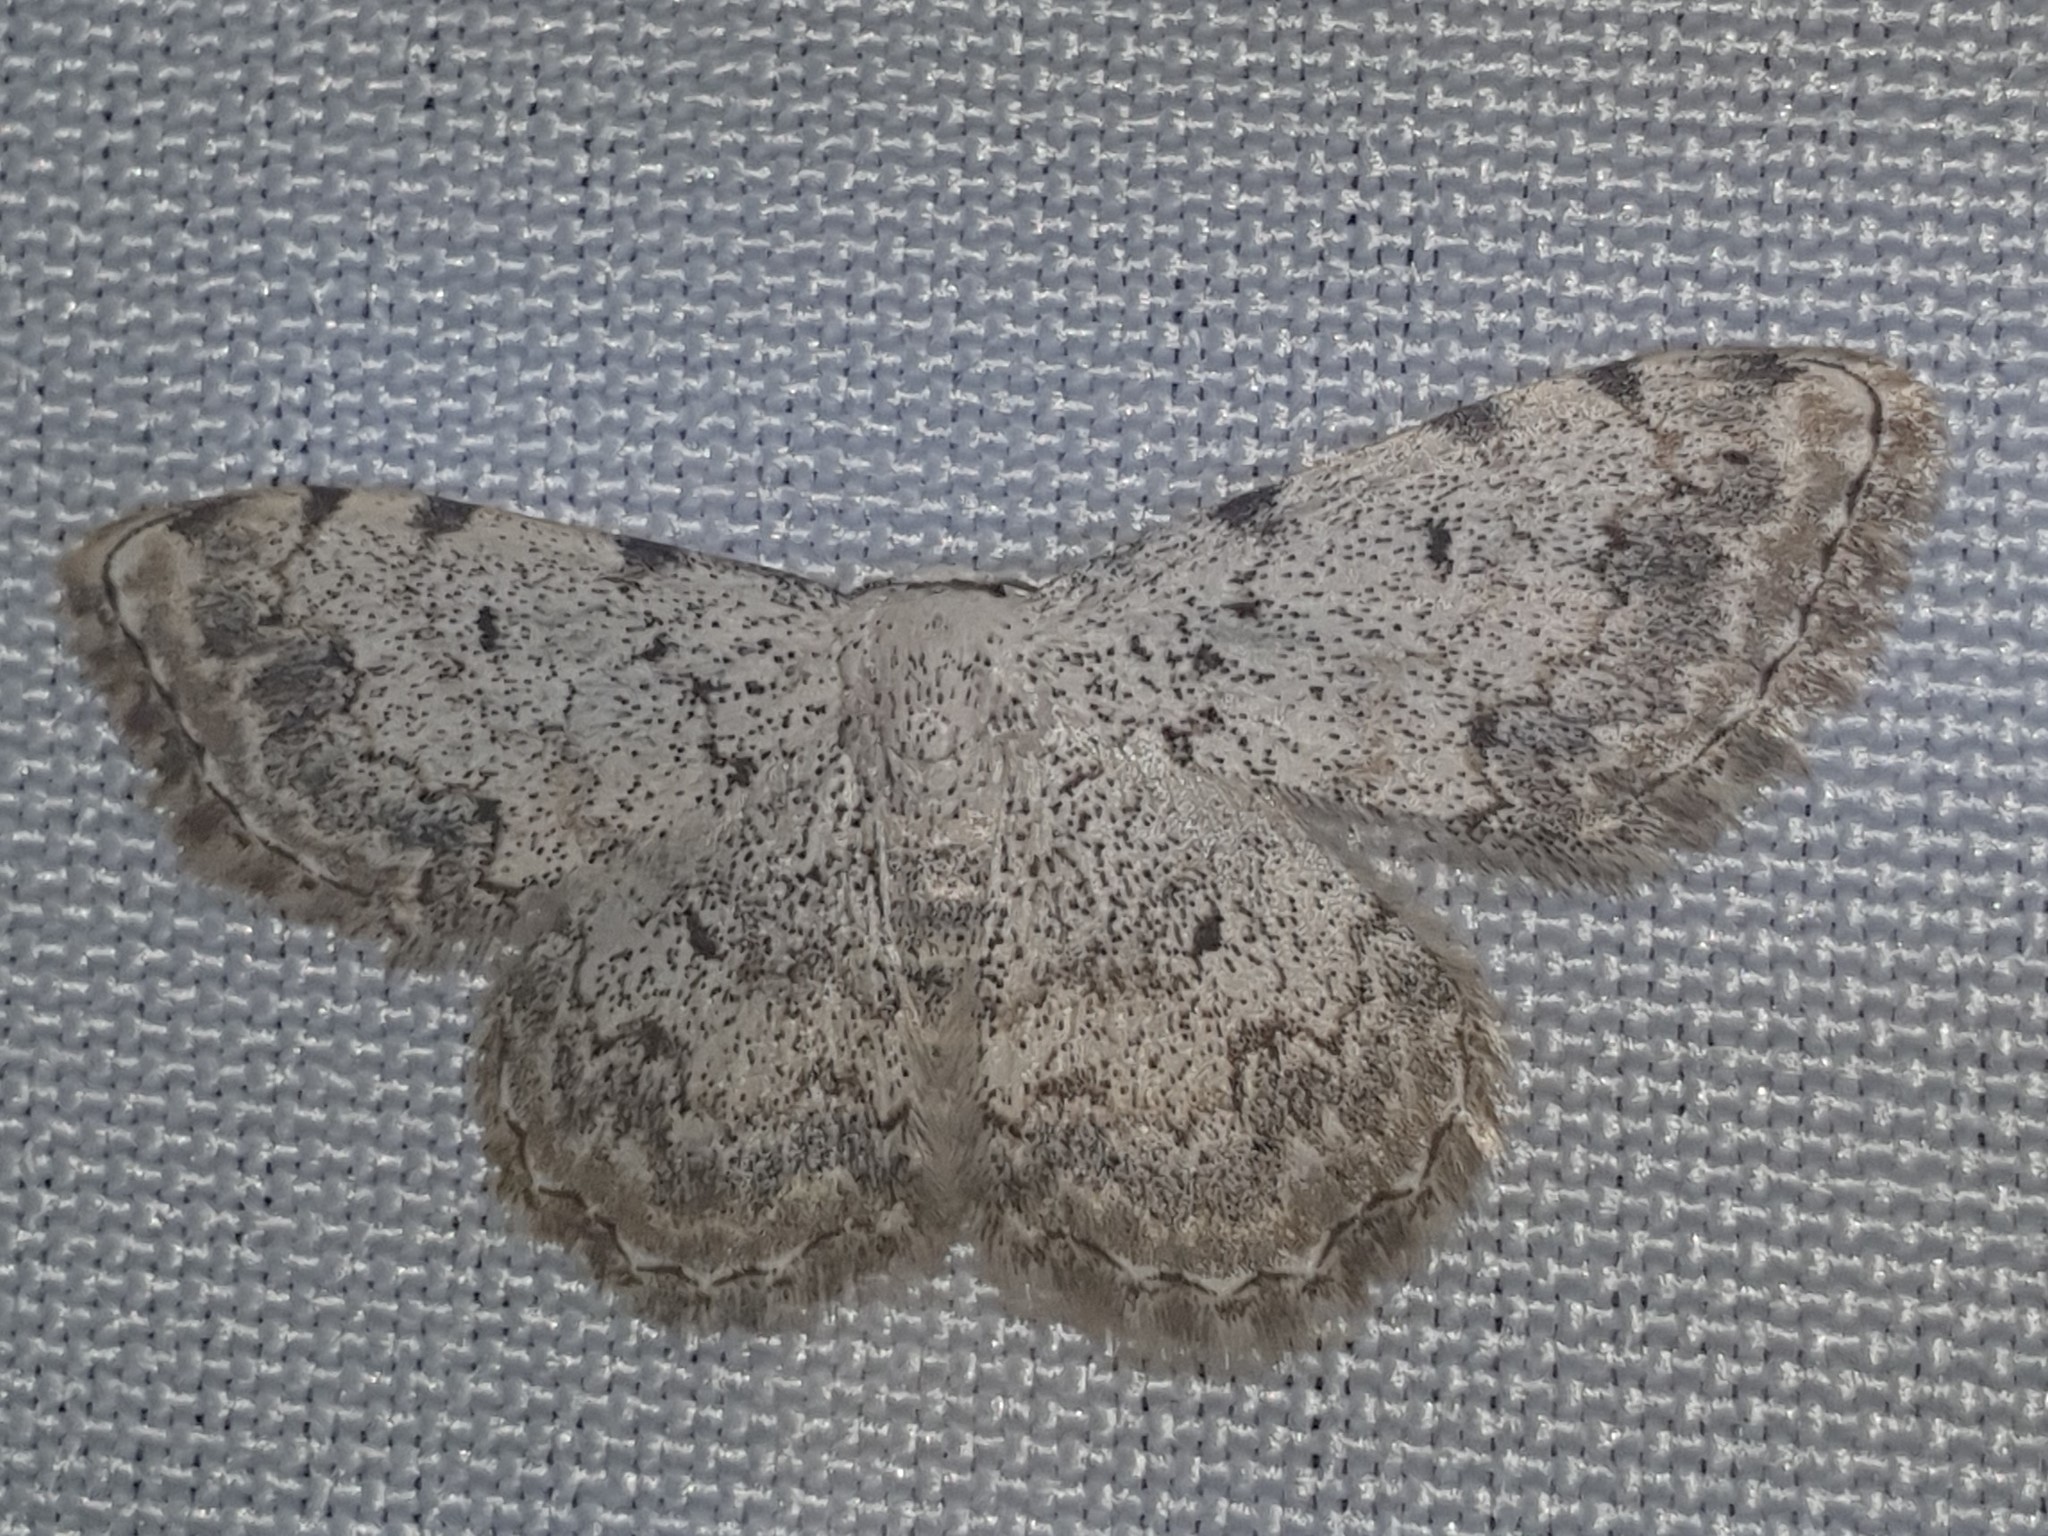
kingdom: Animalia
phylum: Arthropoda
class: Insecta
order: Lepidoptera
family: Geometridae
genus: Scopula
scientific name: Scopula submutata
